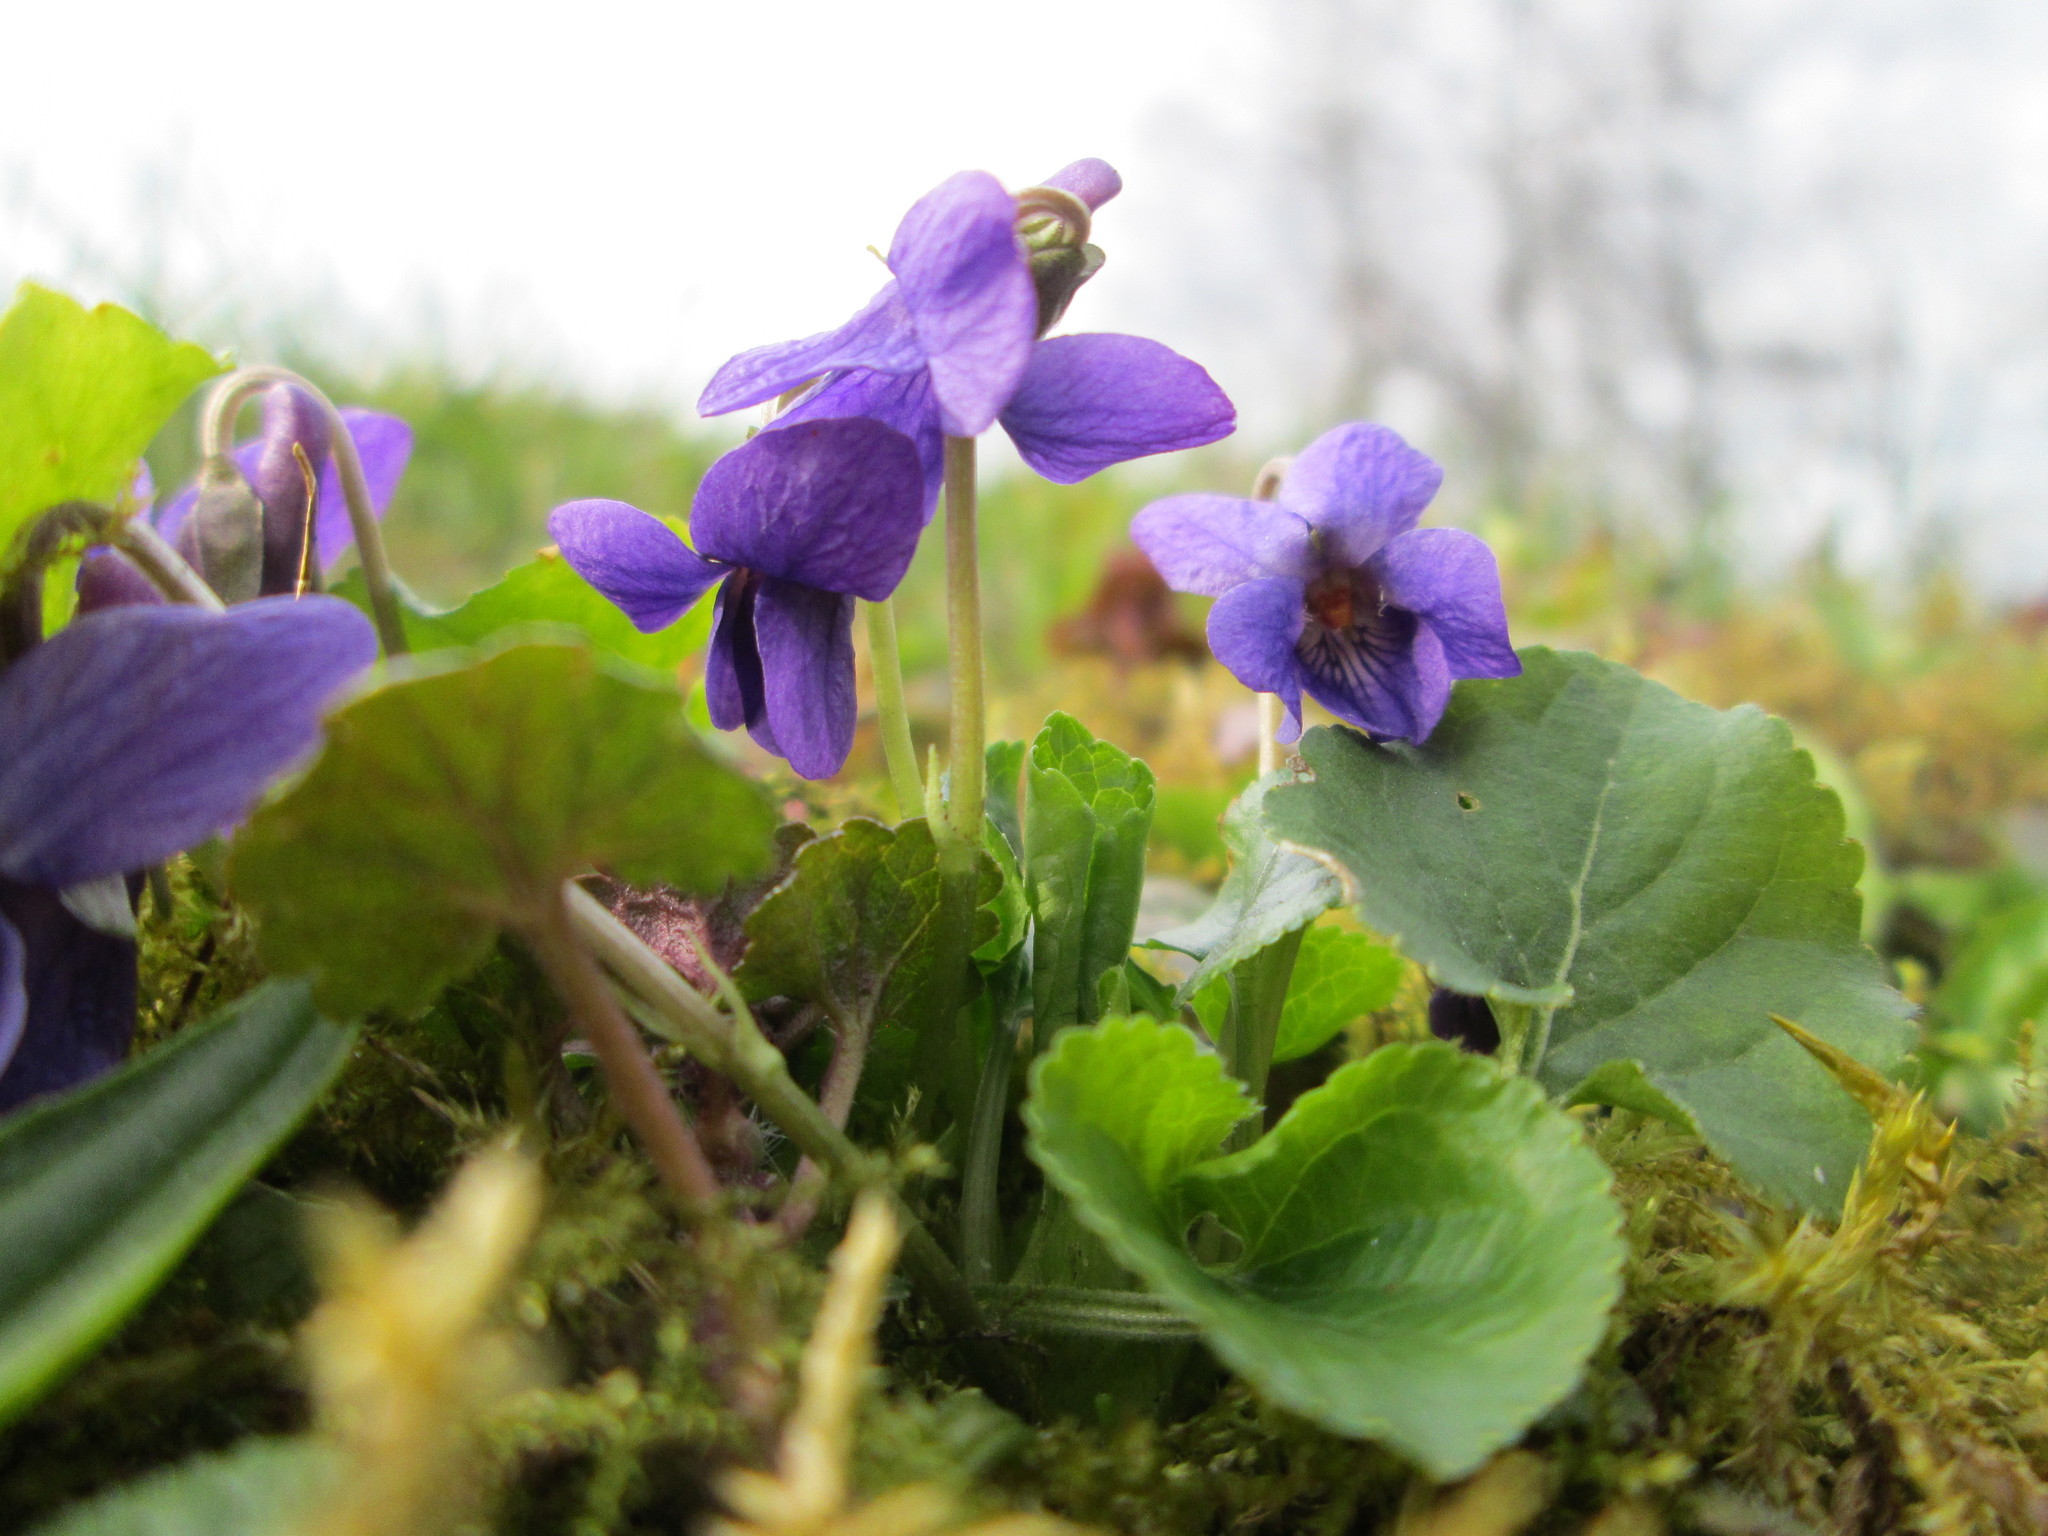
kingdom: Plantae
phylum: Tracheophyta
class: Magnoliopsida
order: Malpighiales
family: Violaceae
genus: Viola
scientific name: Viola odorata
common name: Sweet violet
